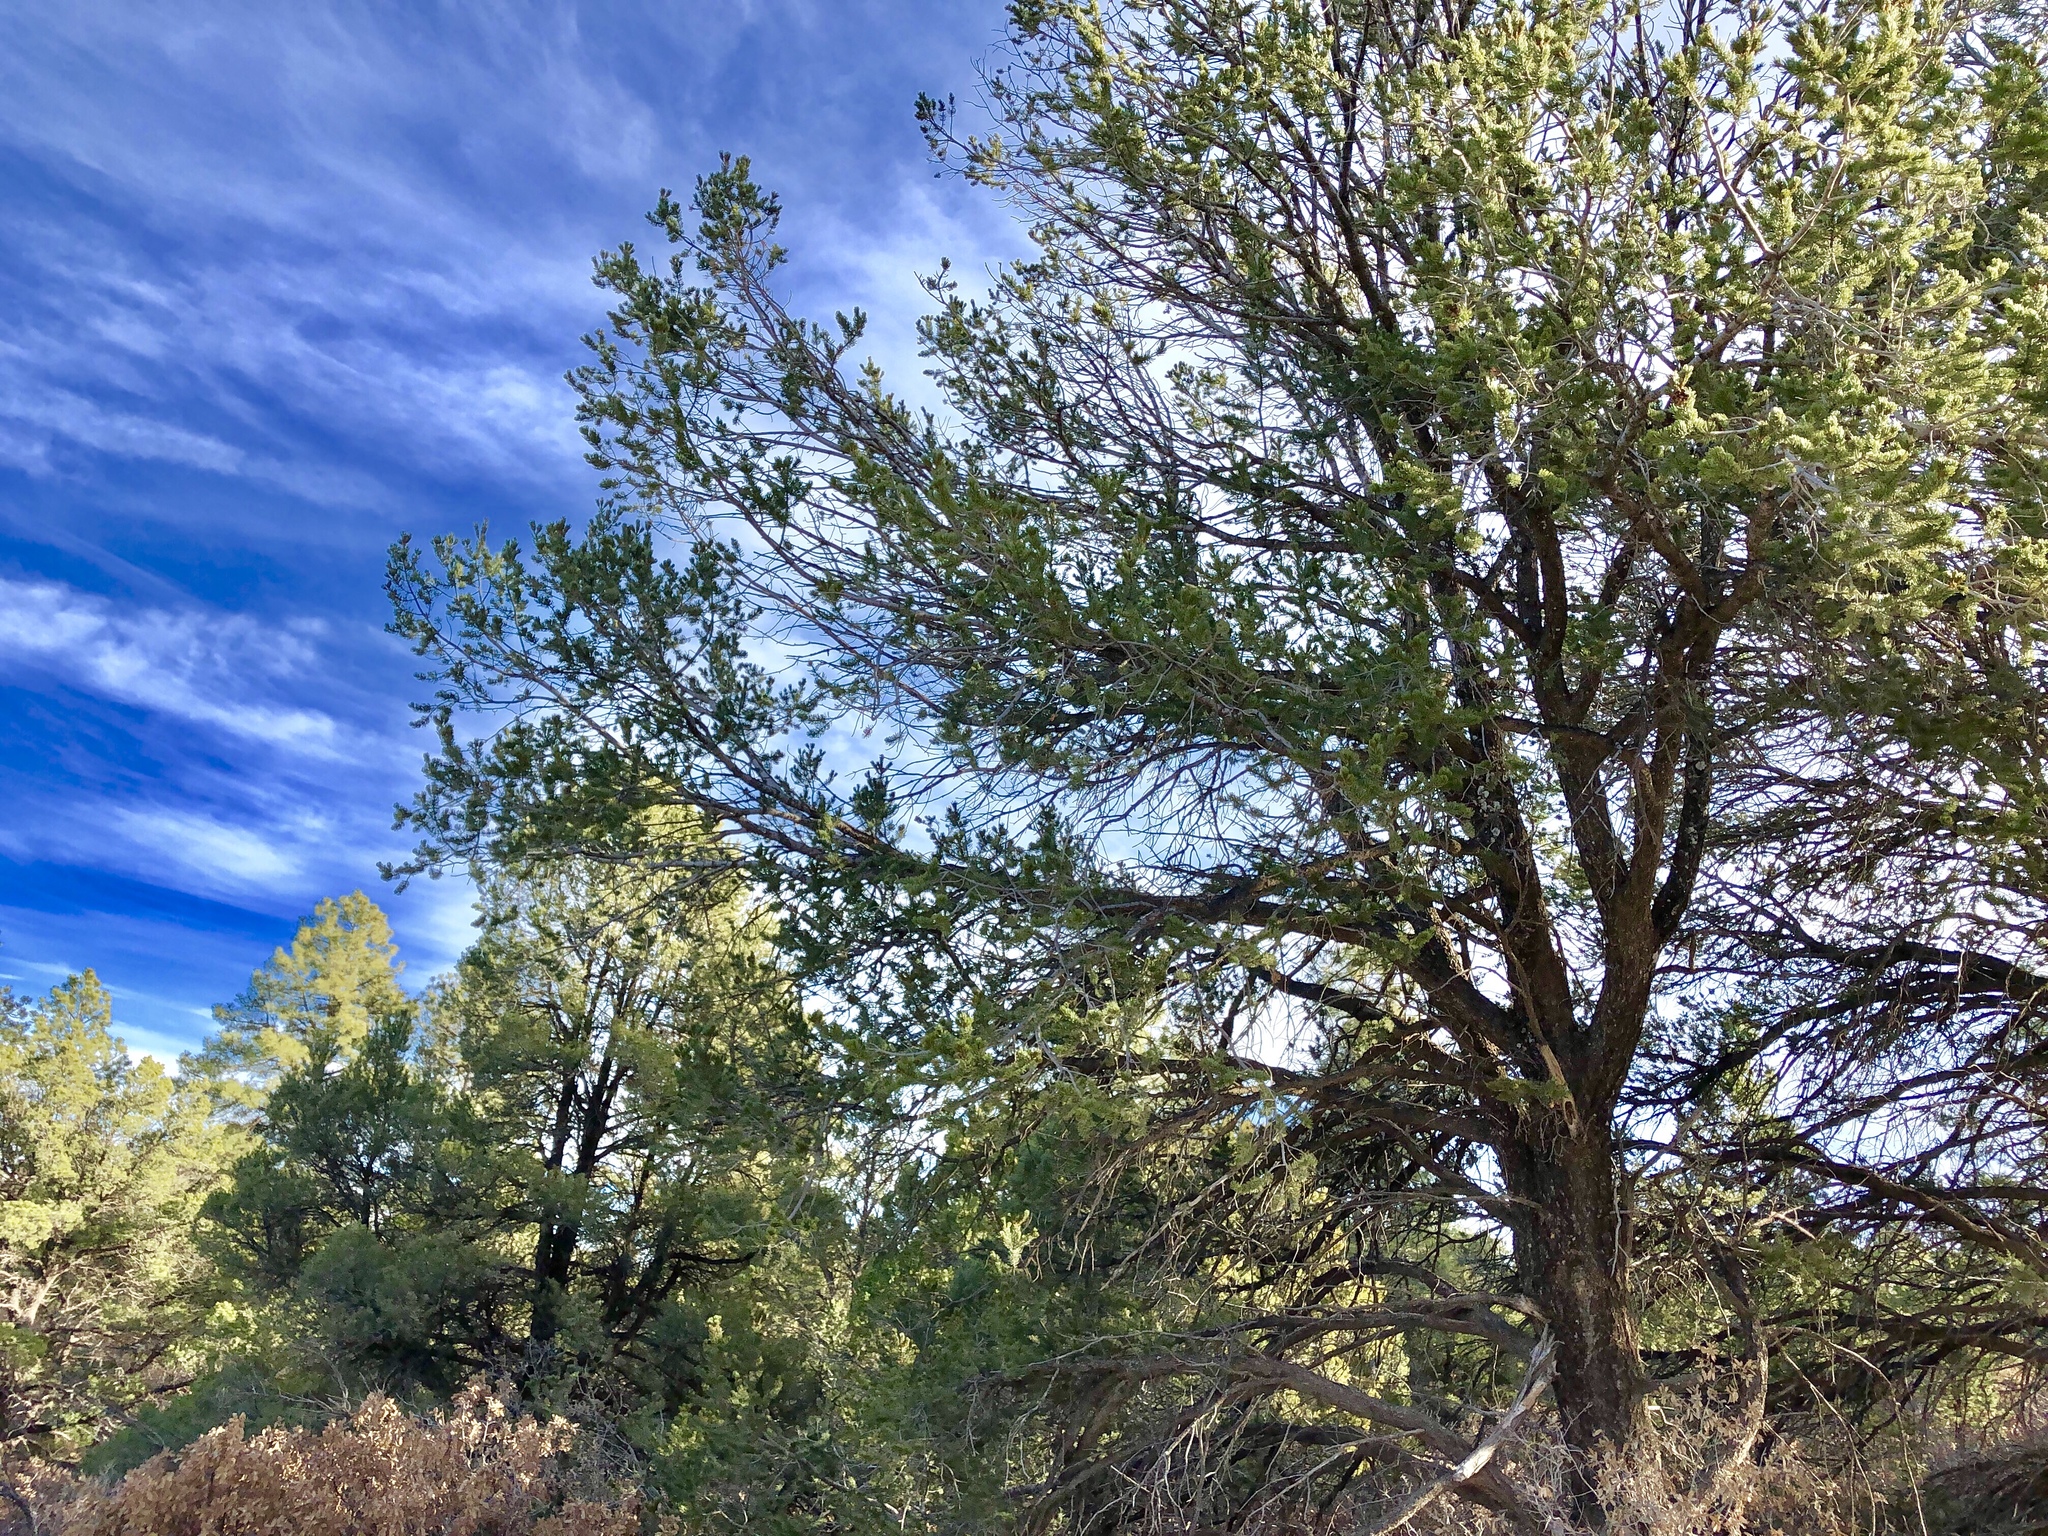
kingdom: Plantae
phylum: Tracheophyta
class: Pinopsida
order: Pinales
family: Pinaceae
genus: Pinus
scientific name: Pinus edulis
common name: Colorado pinyon
